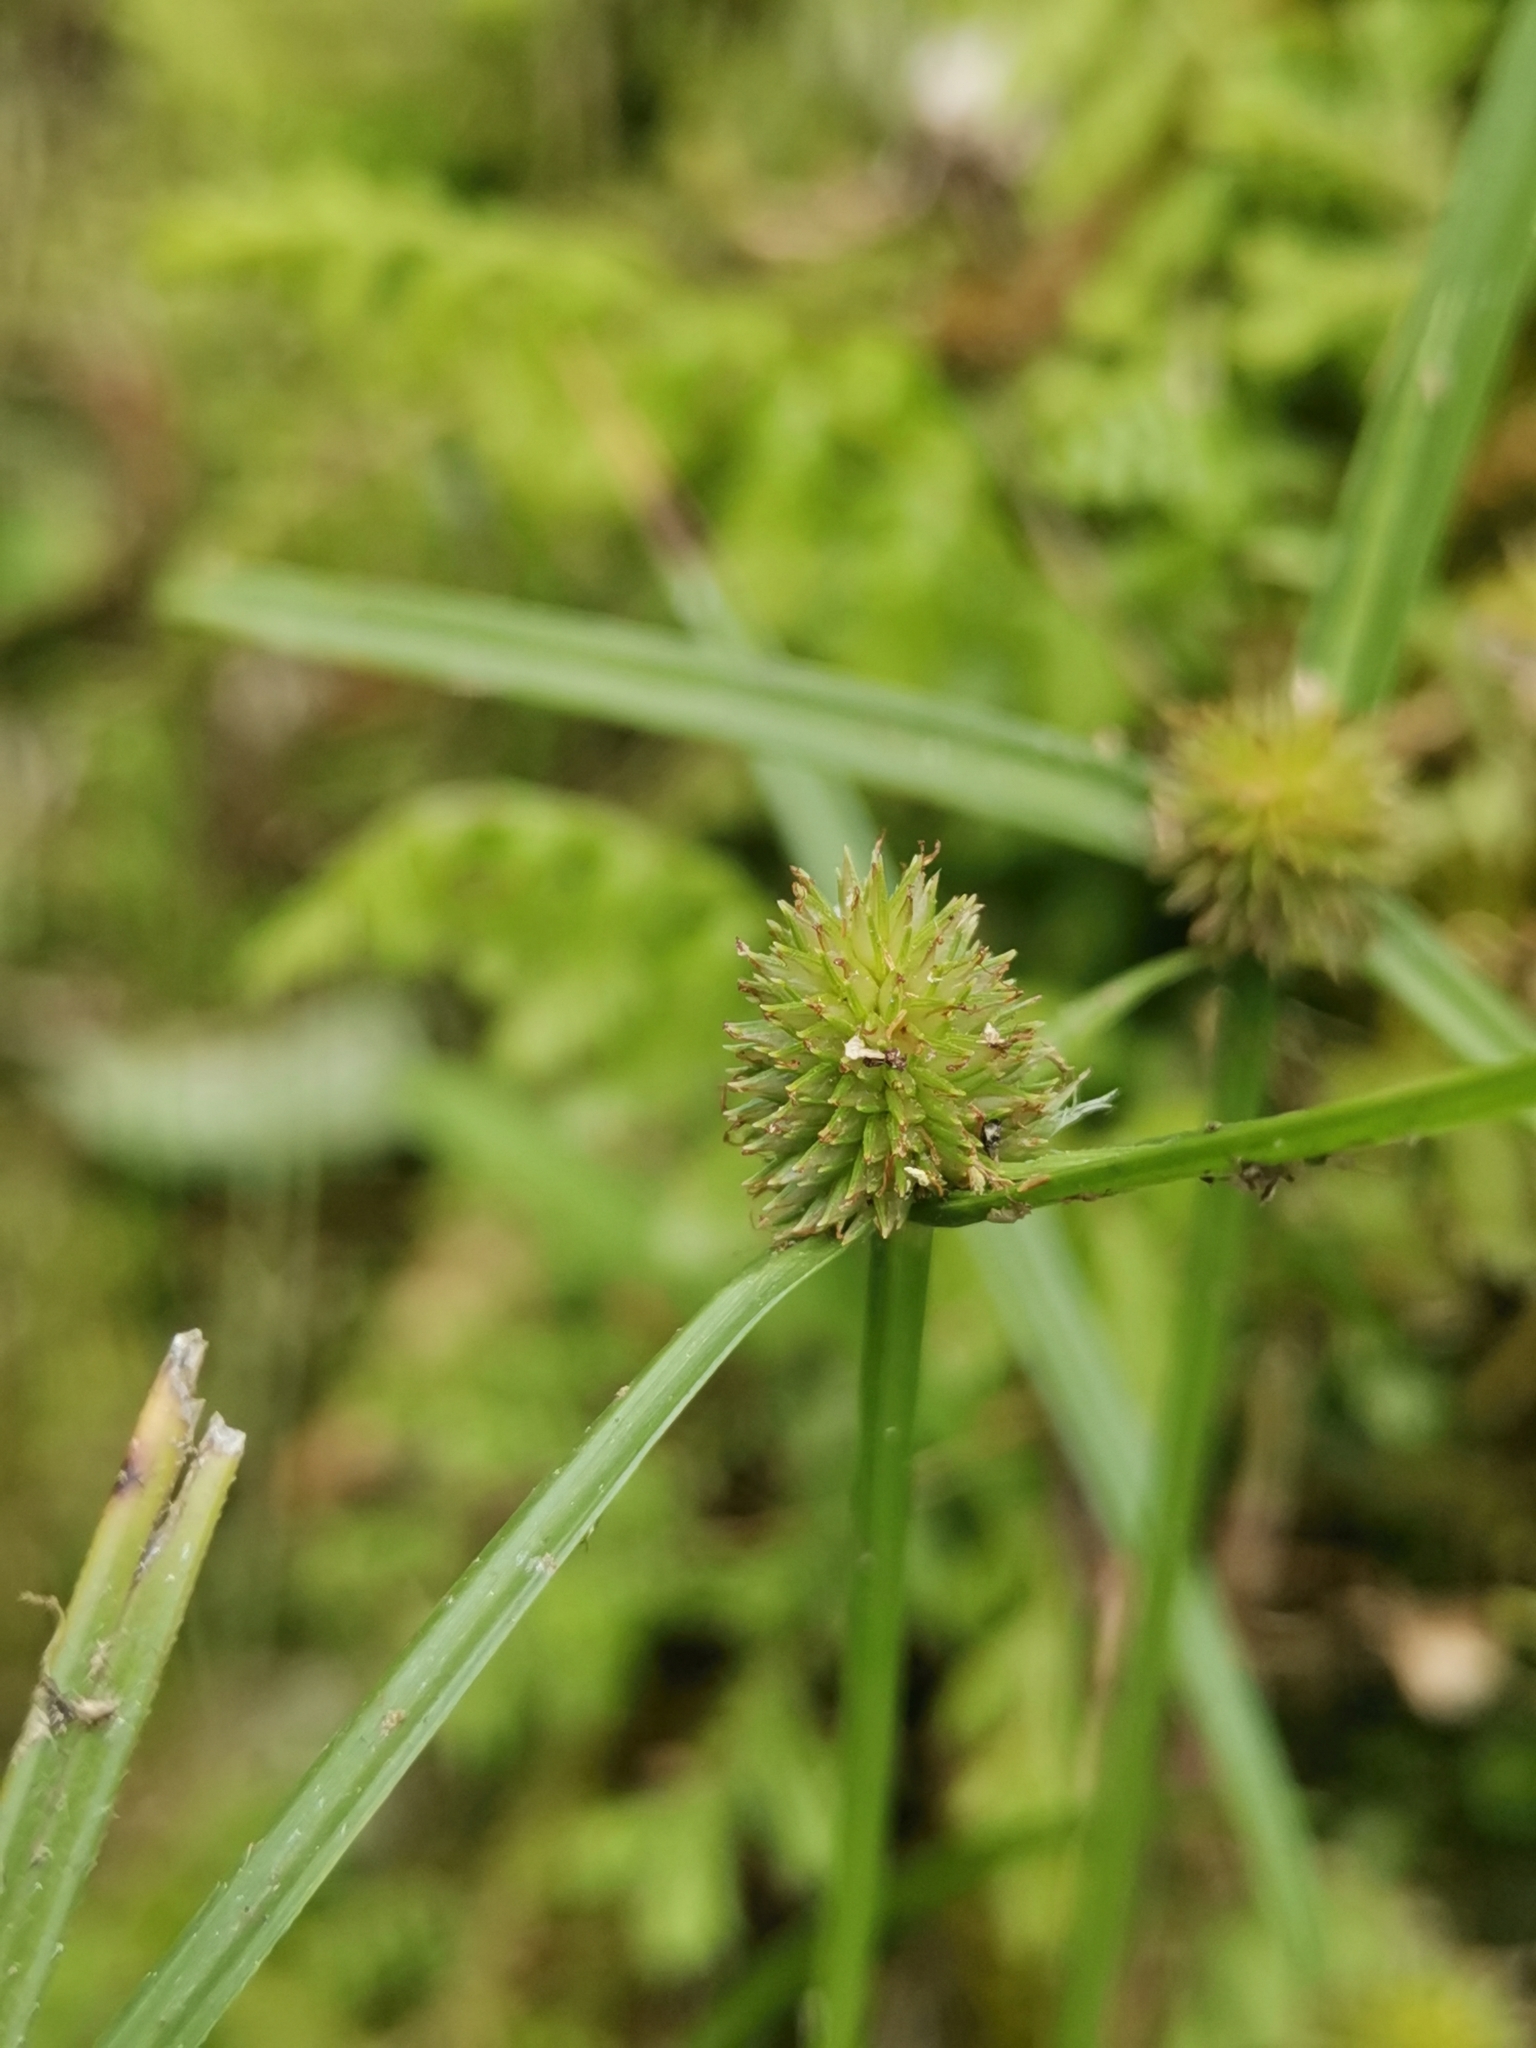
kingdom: Plantae
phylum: Tracheophyta
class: Liliopsida
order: Poales
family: Cyperaceae
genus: Cyperus
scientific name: Cyperus brevifolius
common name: Globe kyllinga
